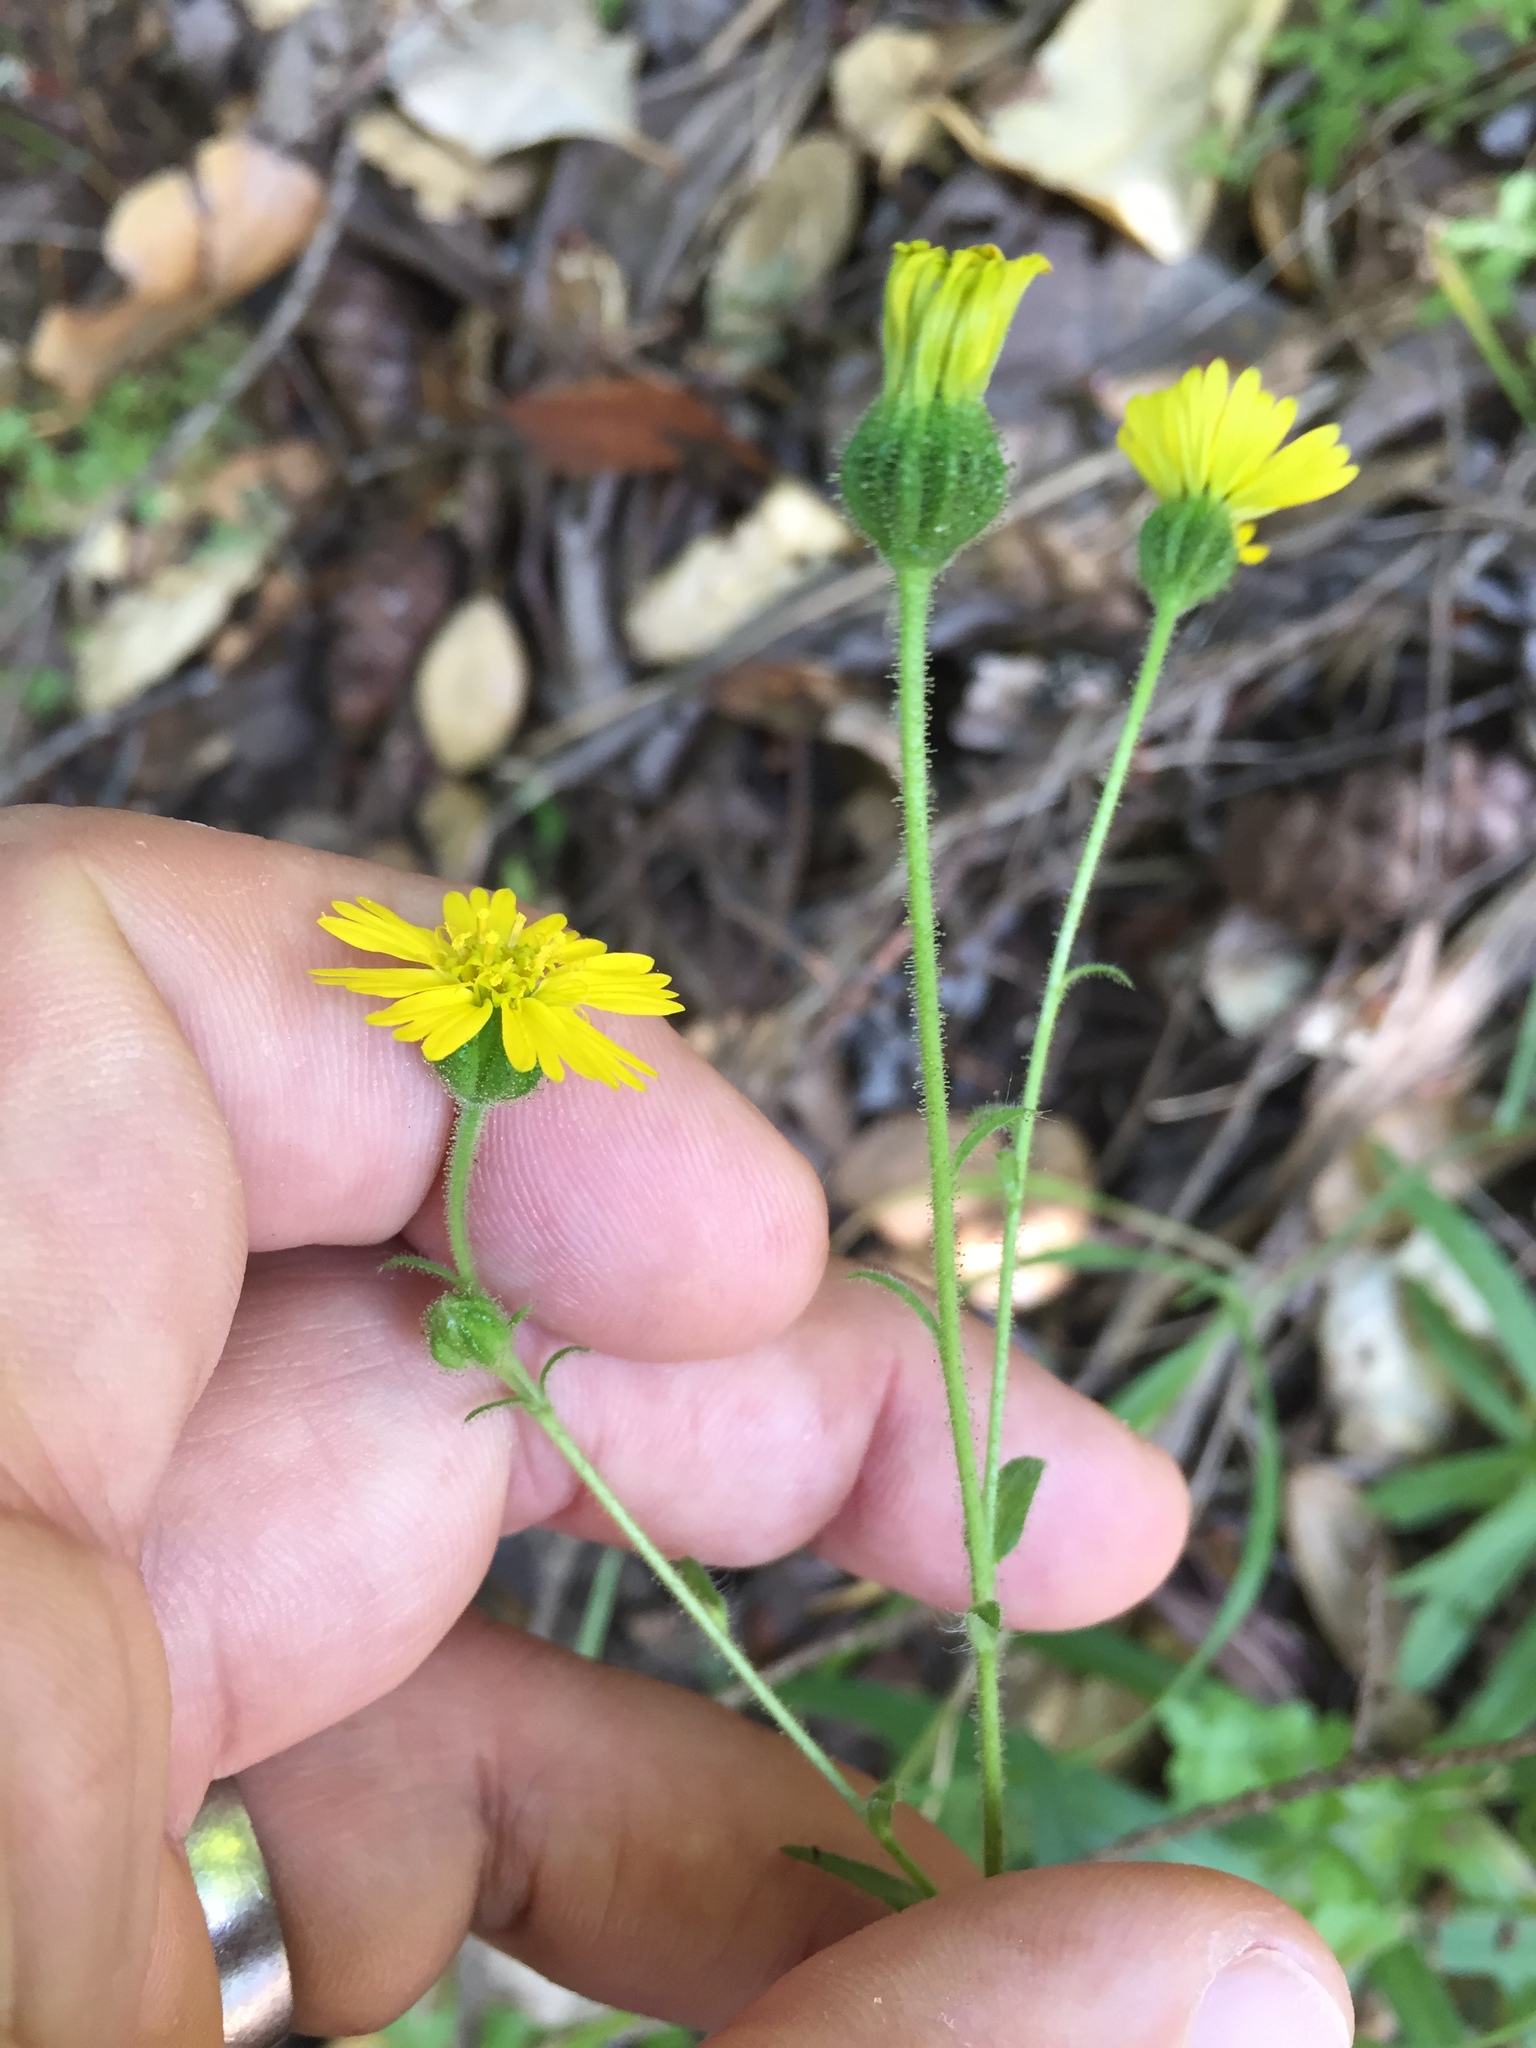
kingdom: Plantae
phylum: Tracheophyta
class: Magnoliopsida
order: Asterales
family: Asteraceae
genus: Anisocarpus
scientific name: Anisocarpus madioides
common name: Woodland madia
